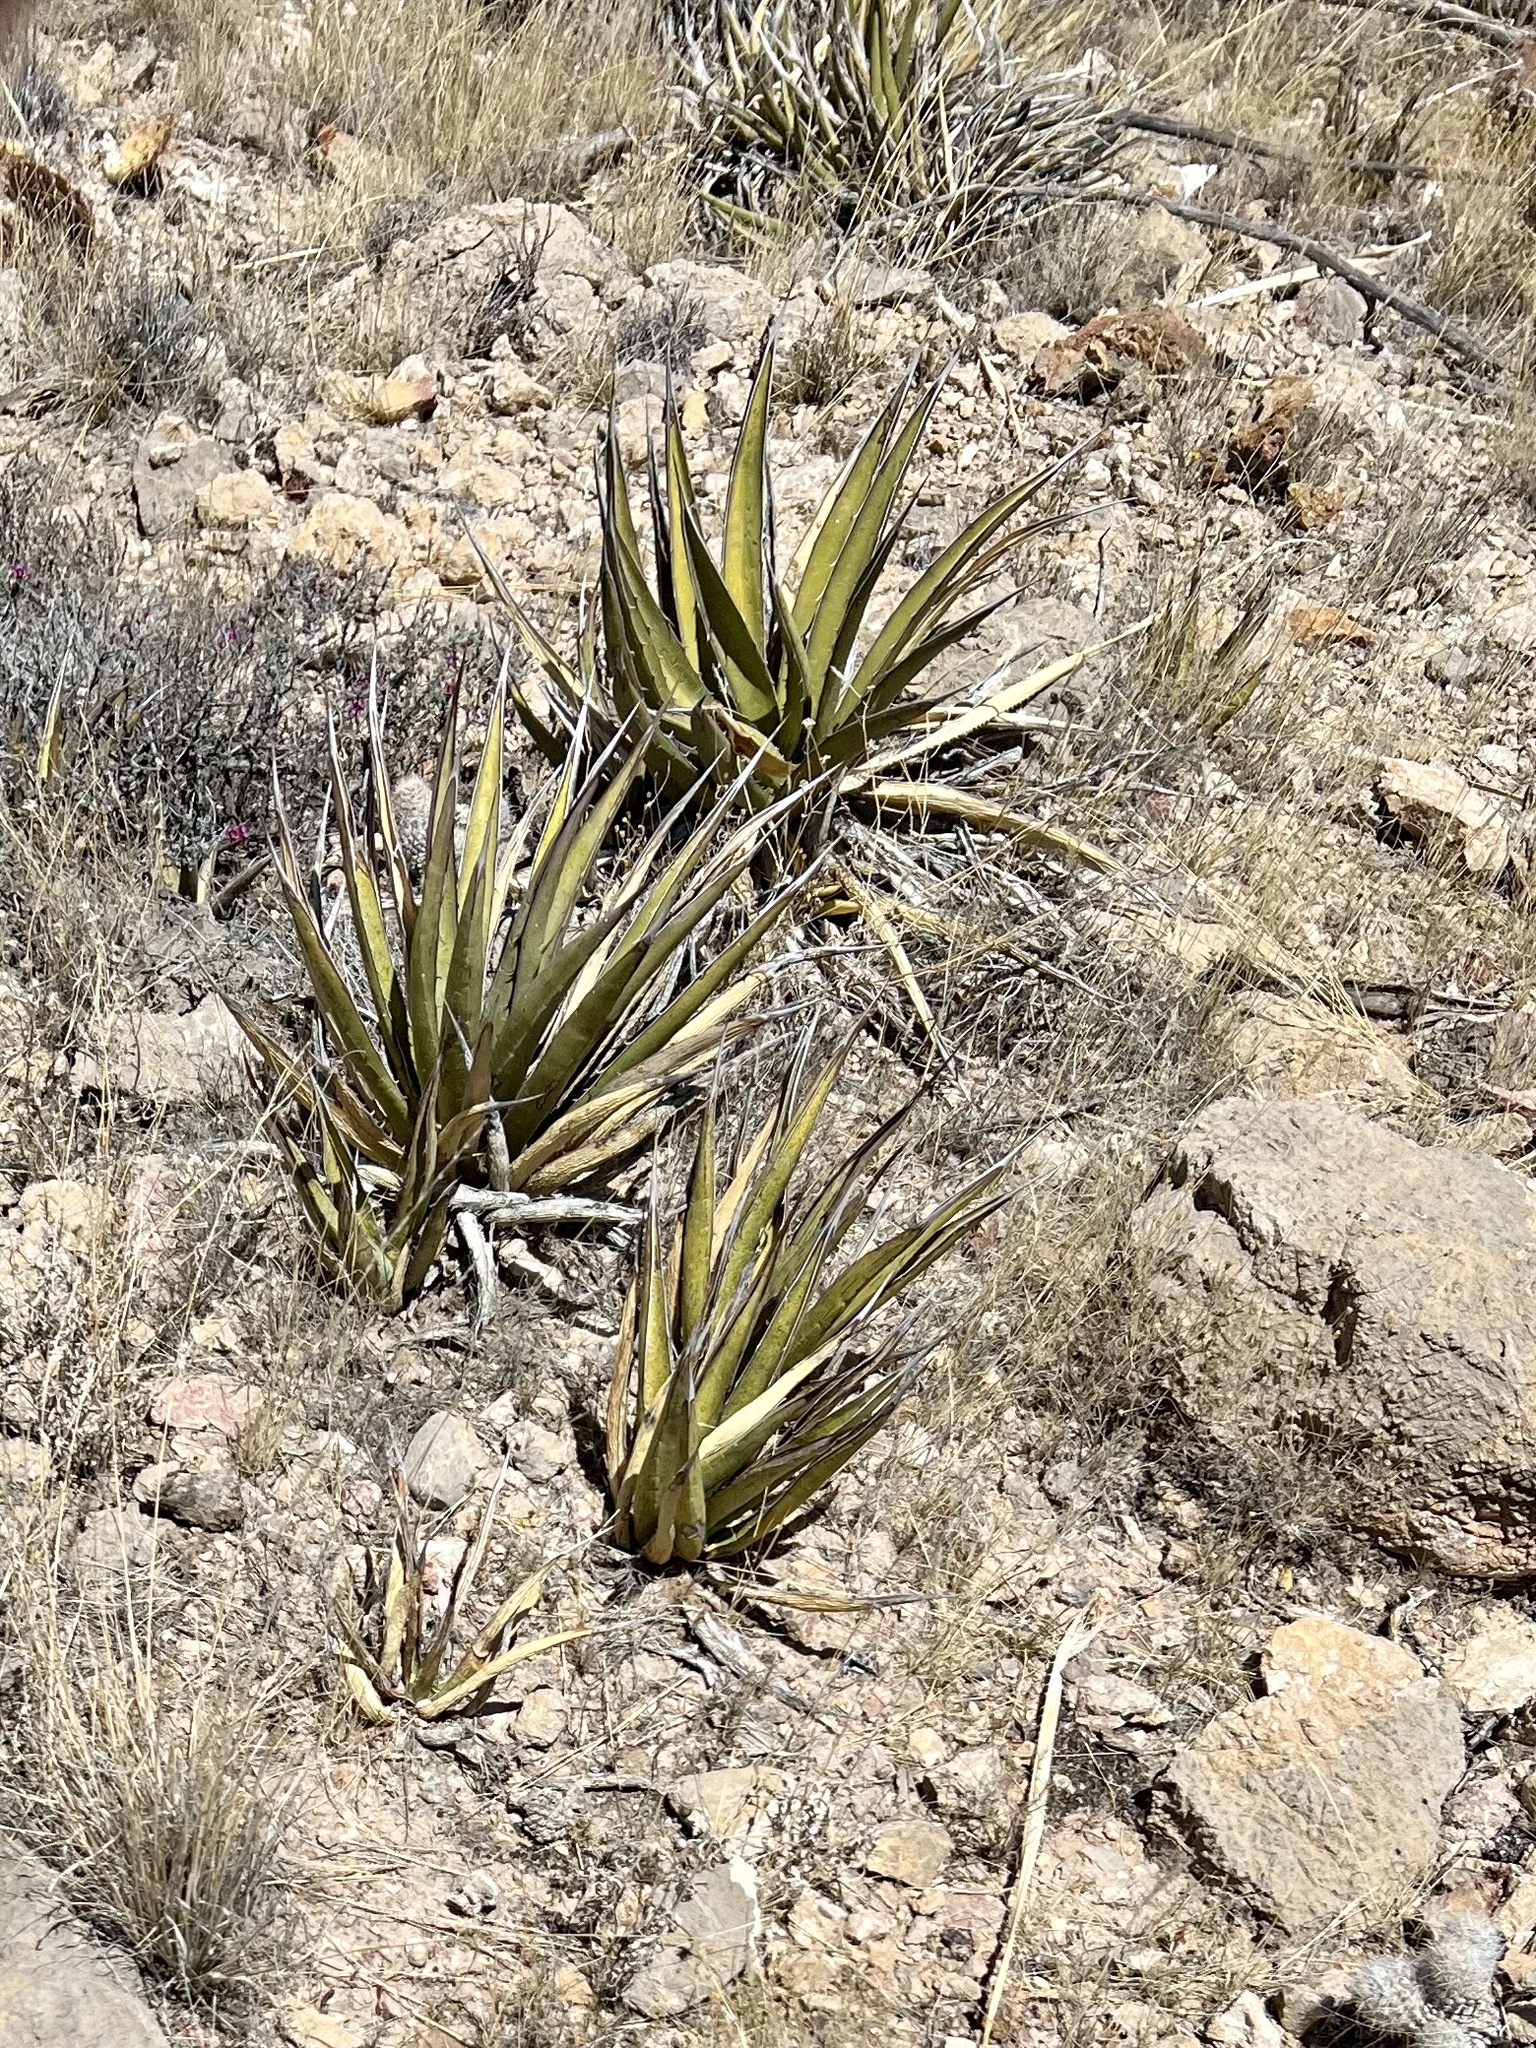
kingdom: Plantae
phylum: Tracheophyta
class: Liliopsida
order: Asparagales
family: Asparagaceae
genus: Agave
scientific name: Agave lechuguilla
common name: Lecheguilla agave
